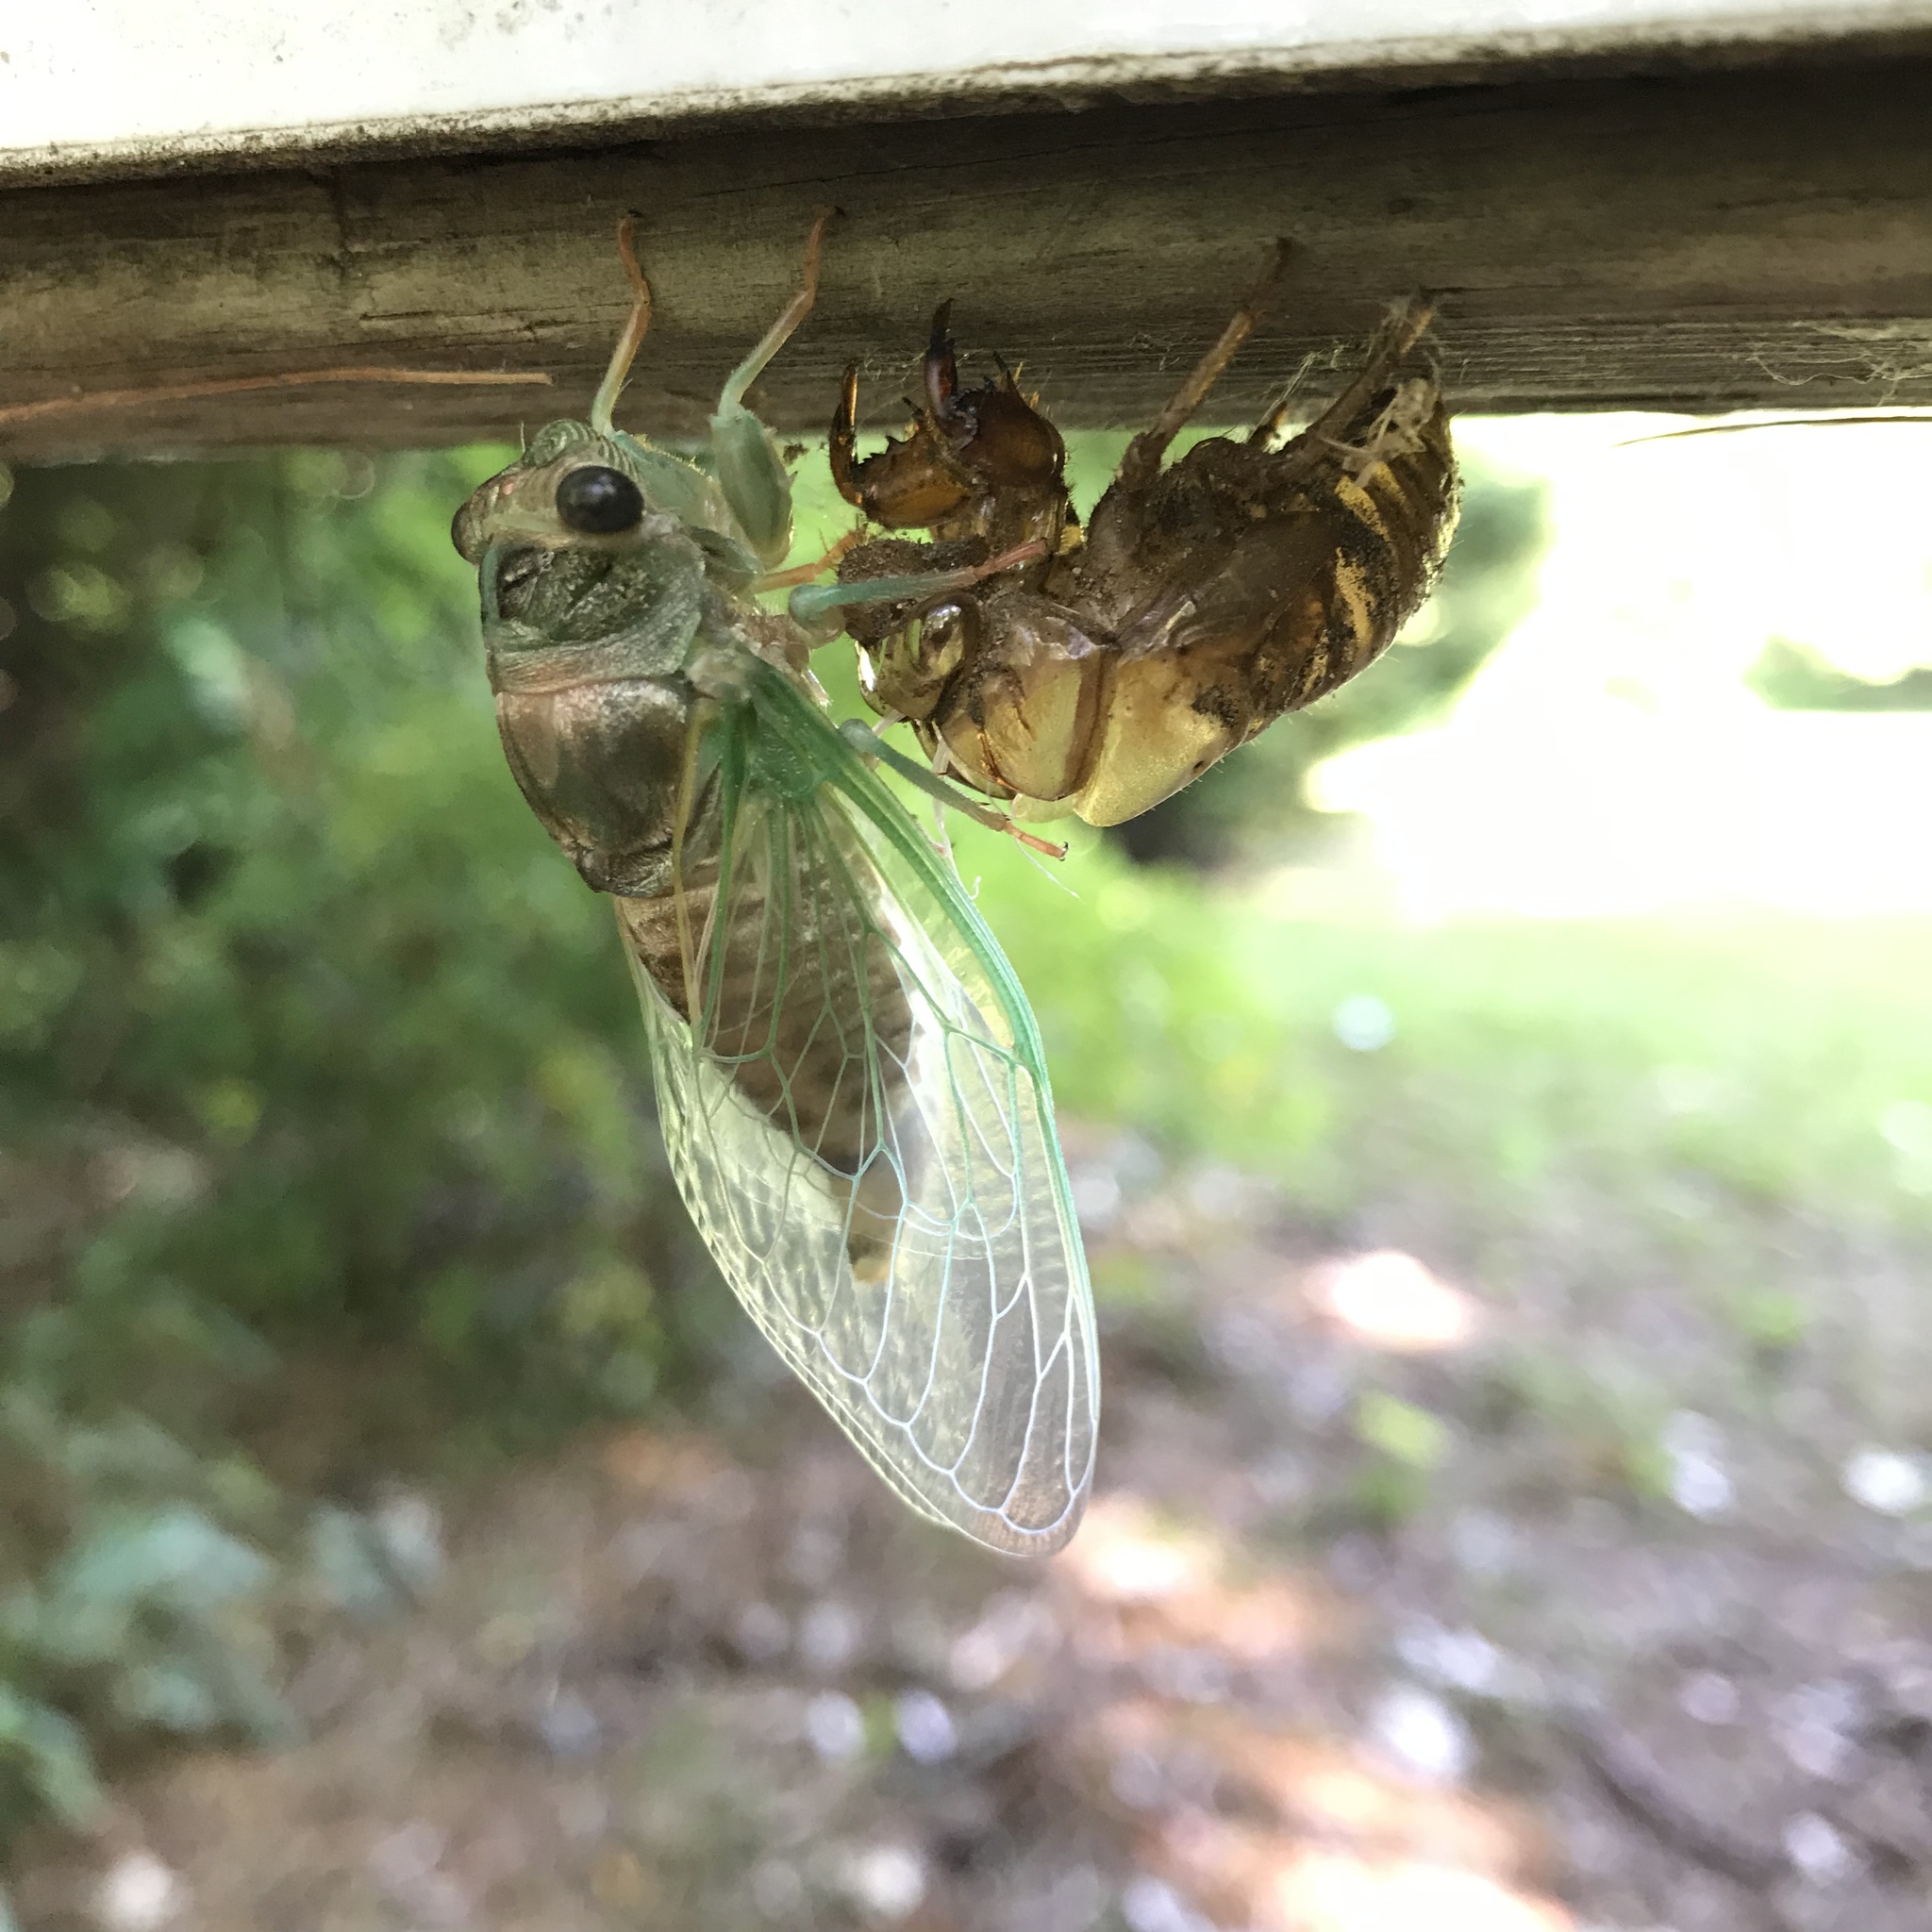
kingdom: Animalia
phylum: Arthropoda
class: Insecta
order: Hemiptera
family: Cicadidae
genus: Neotibicen
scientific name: Neotibicen canicularis
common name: God-day cicada
